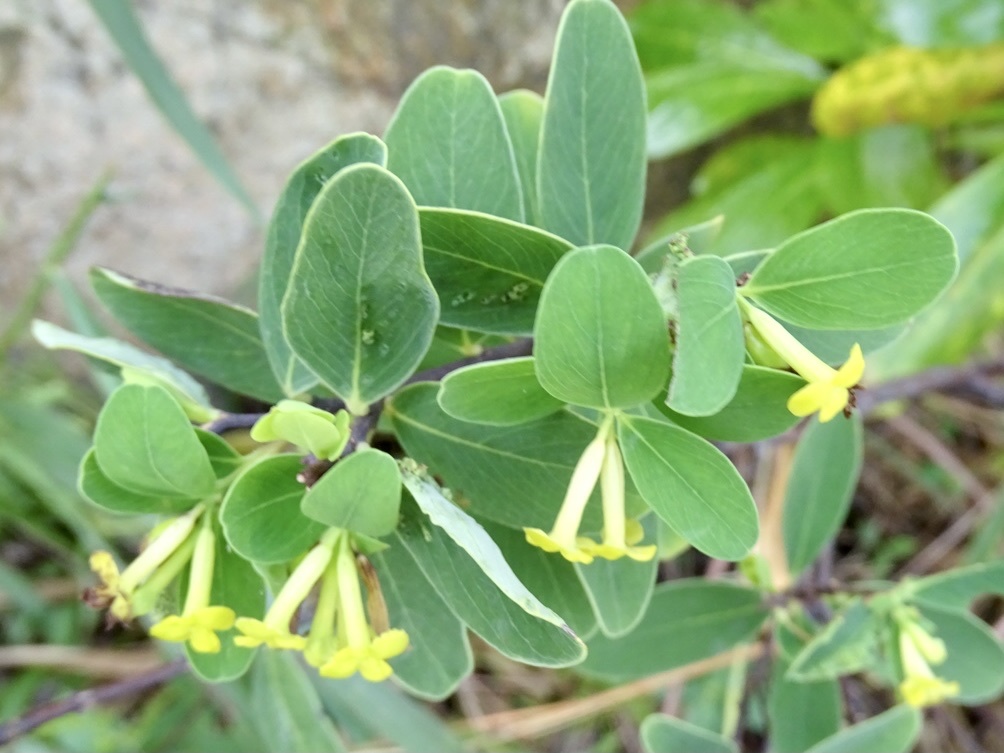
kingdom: Plantae
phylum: Tracheophyta
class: Magnoliopsida
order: Malvales
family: Thymelaeaceae
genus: Wikstroemia
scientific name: Wikstroemia indica
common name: Tiebush
